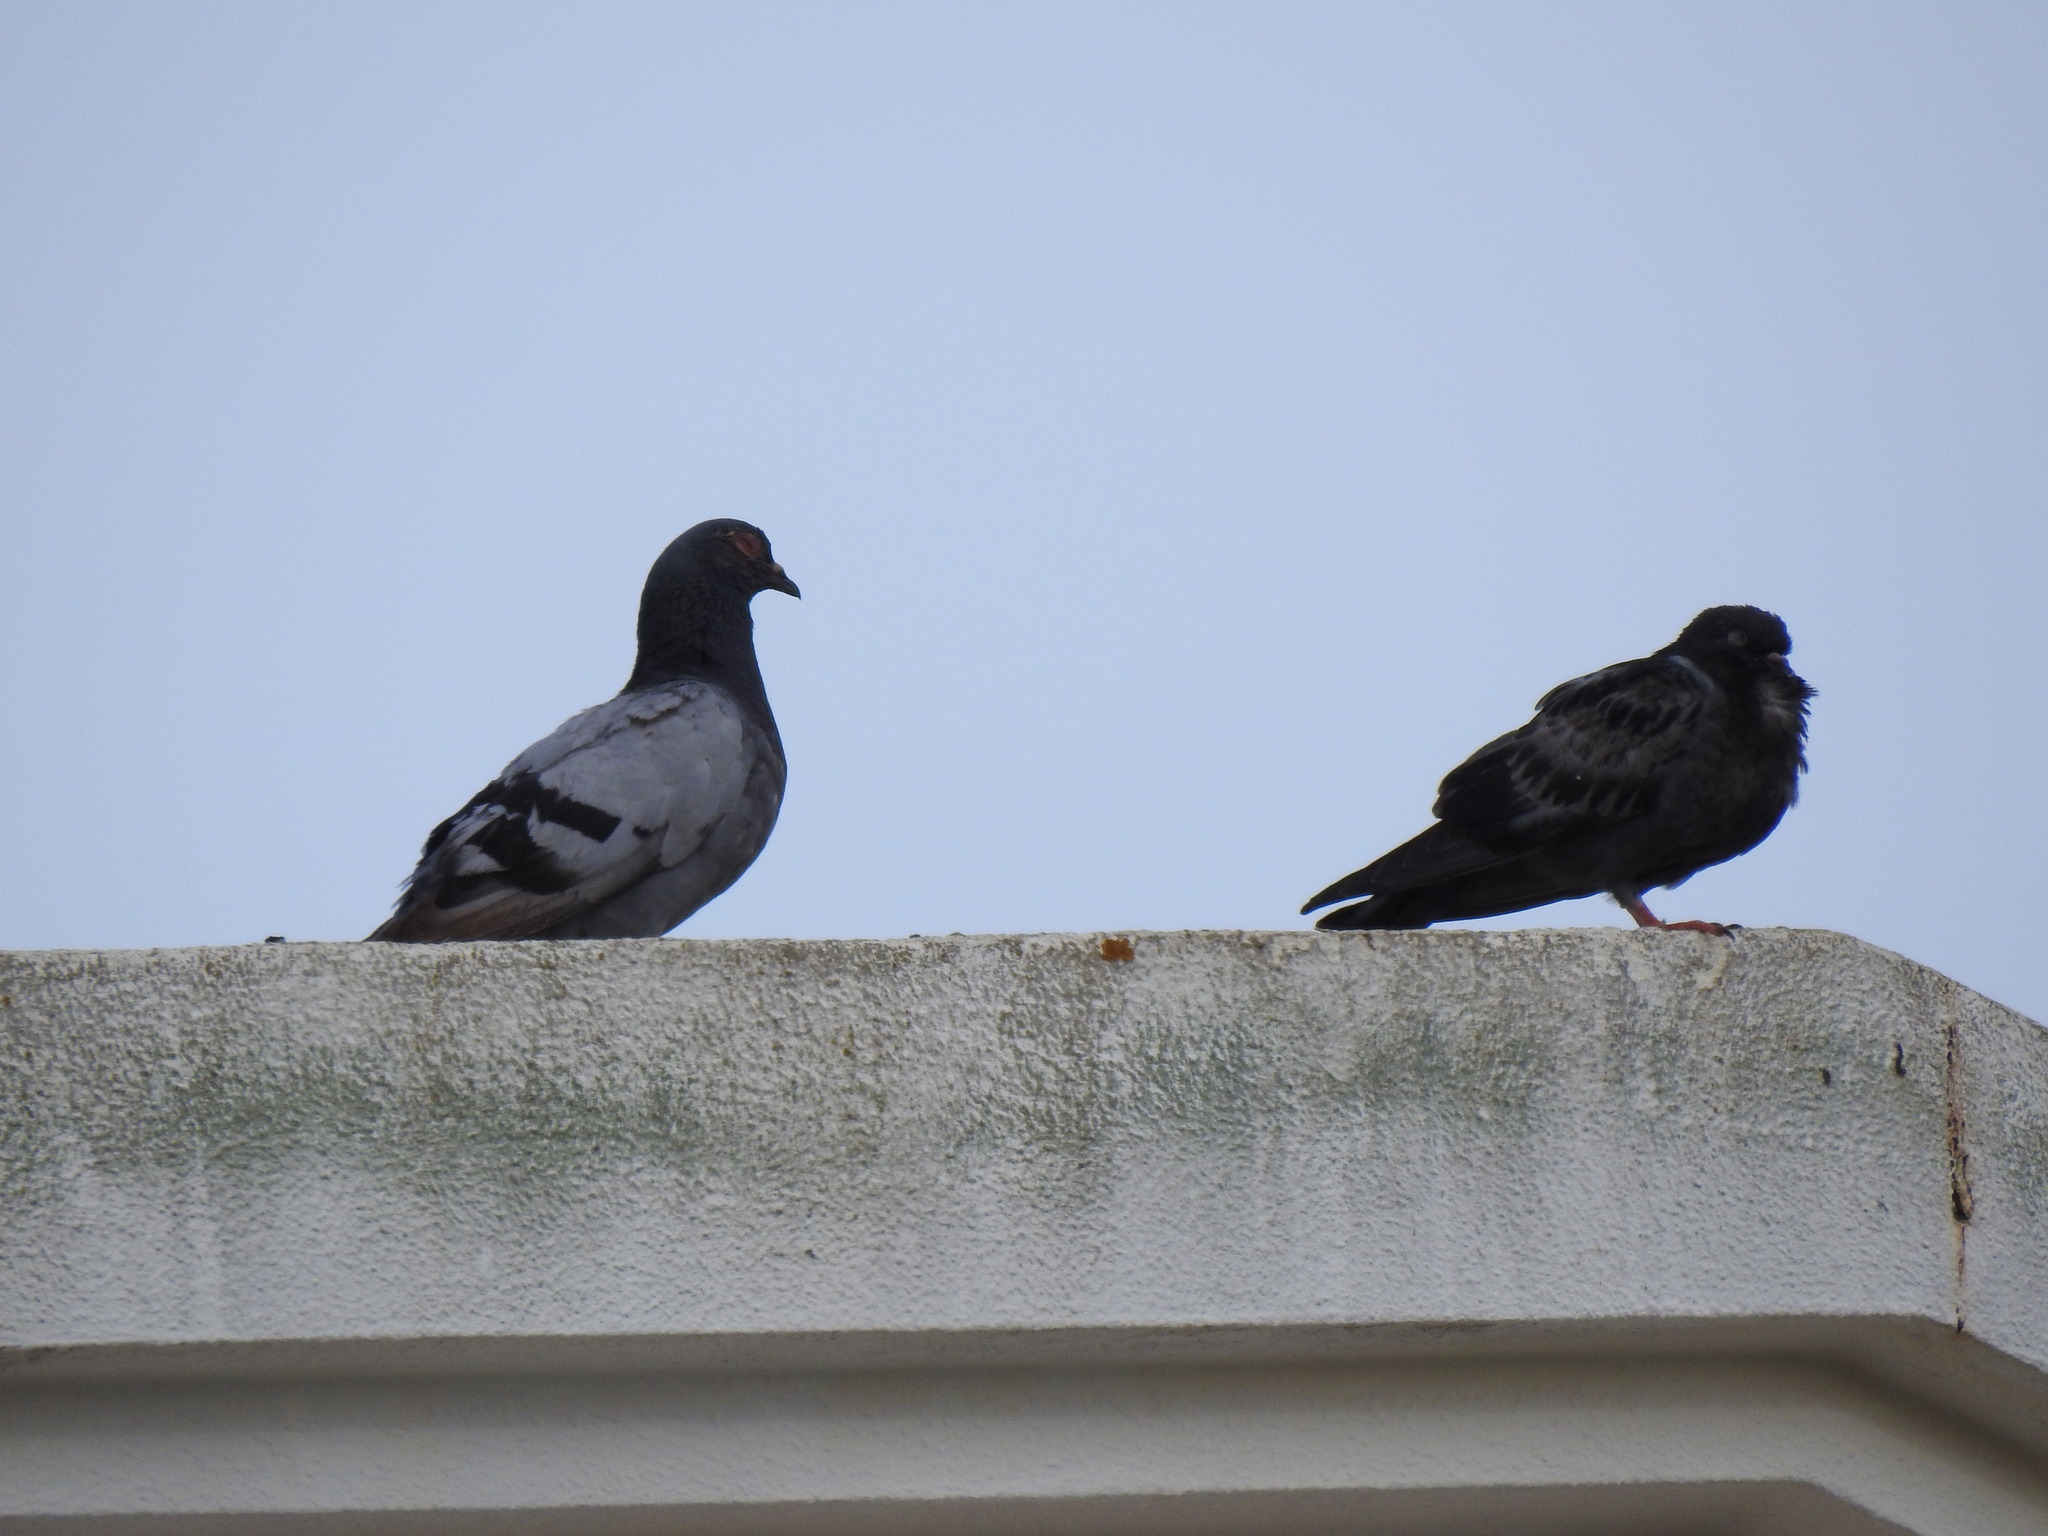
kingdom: Animalia
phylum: Chordata
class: Aves
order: Columbiformes
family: Columbidae
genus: Columba
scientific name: Columba livia
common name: Rock pigeon
